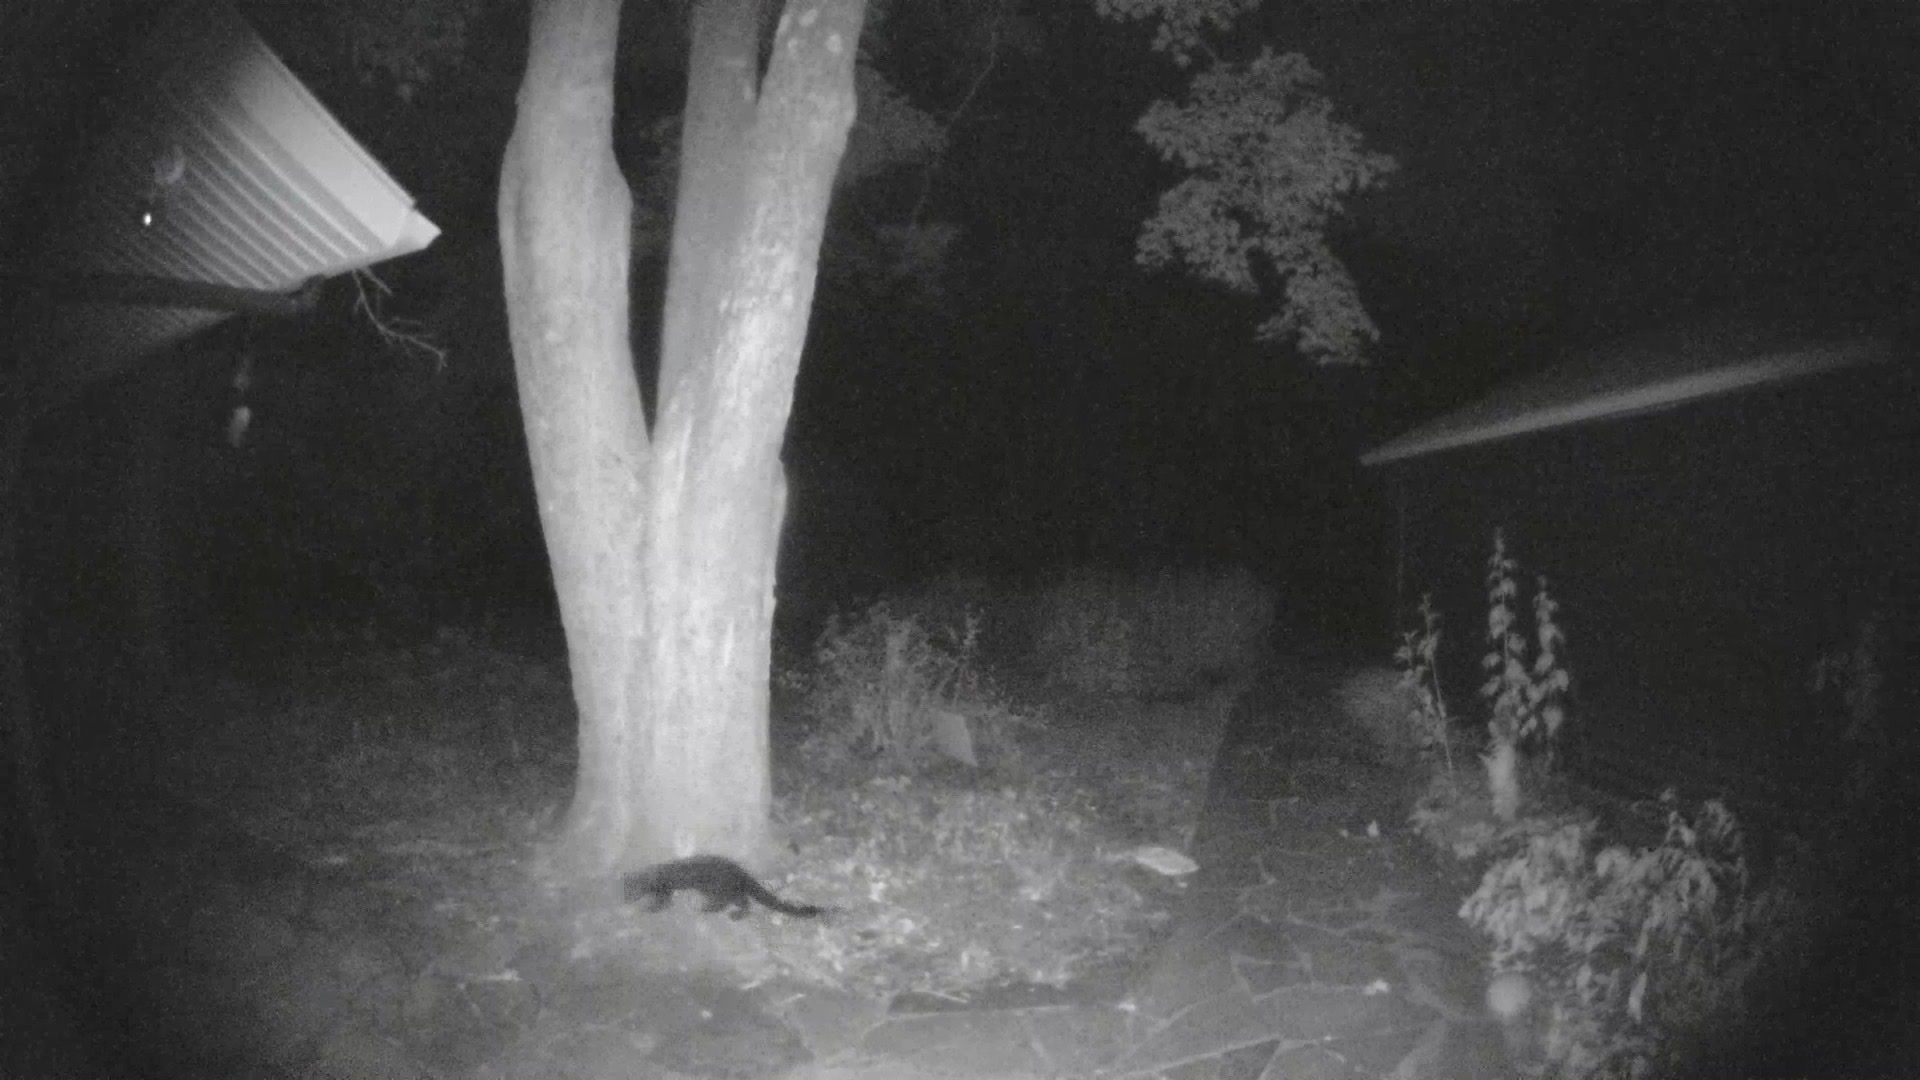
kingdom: Animalia
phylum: Chordata
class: Mammalia
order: Carnivora
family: Mustelidae
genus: Pekania
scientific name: Pekania pennanti
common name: Fisher
